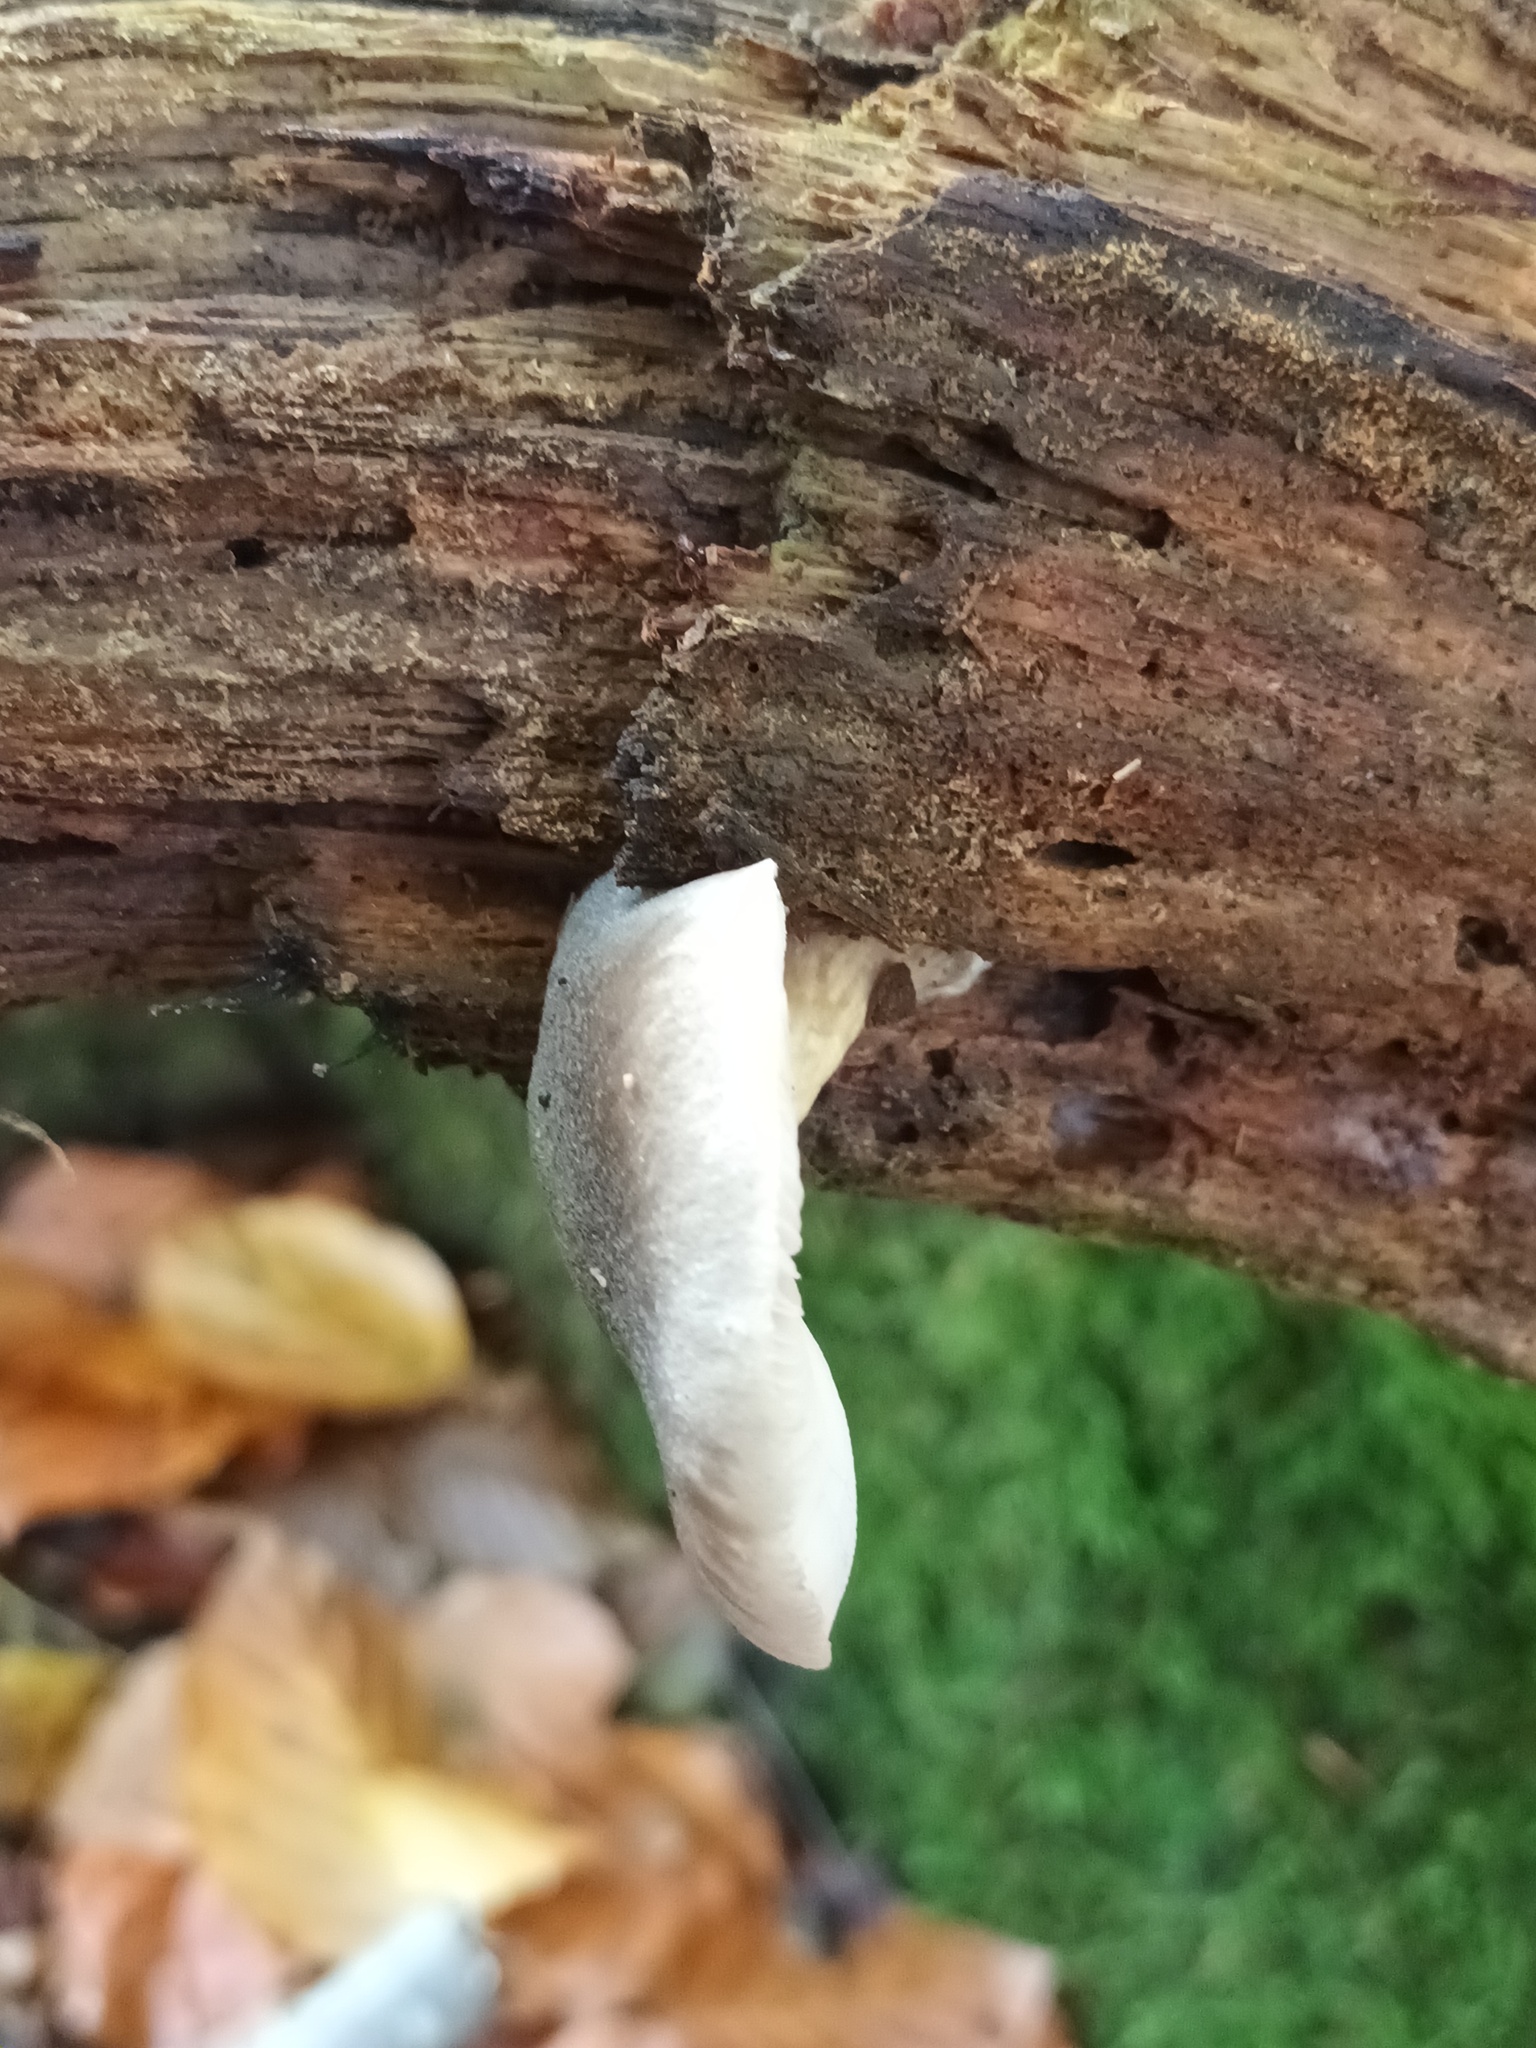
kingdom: Fungi
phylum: Basidiomycota
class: Agaricomycetes
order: Agaricales
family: Pluteaceae
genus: Pluteus
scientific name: Pluteus salicinus
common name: Willow shield
